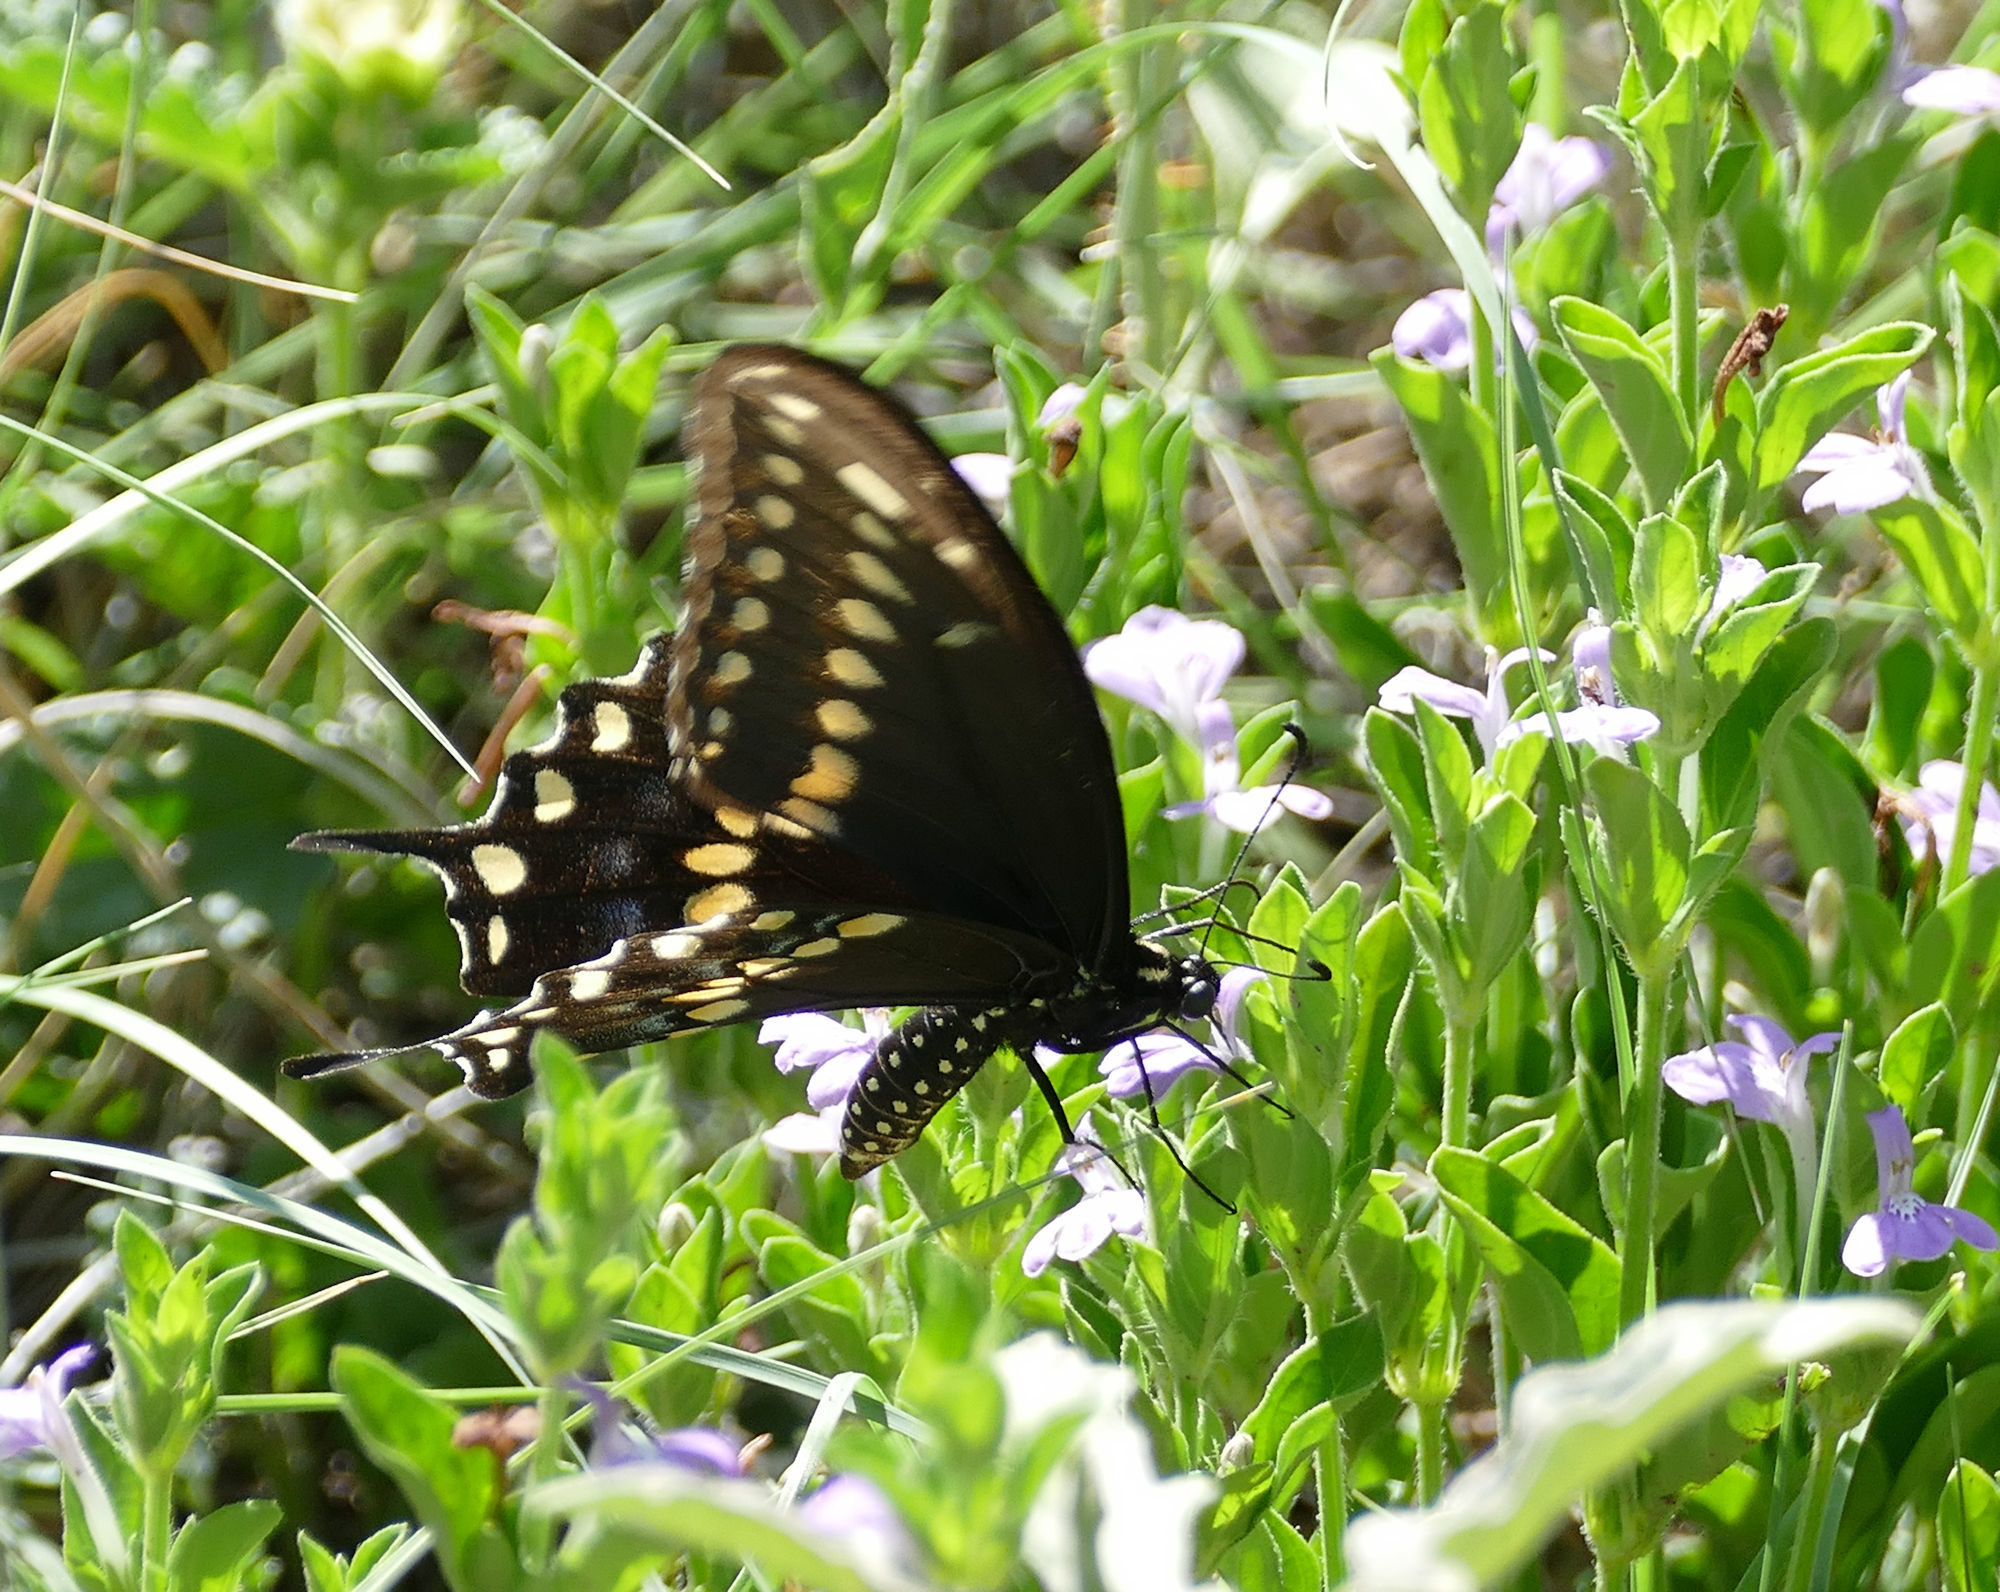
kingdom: Animalia
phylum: Arthropoda
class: Insecta
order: Lepidoptera
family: Papilionidae
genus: Papilio
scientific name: Papilio polyxenes
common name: Black swallowtail
